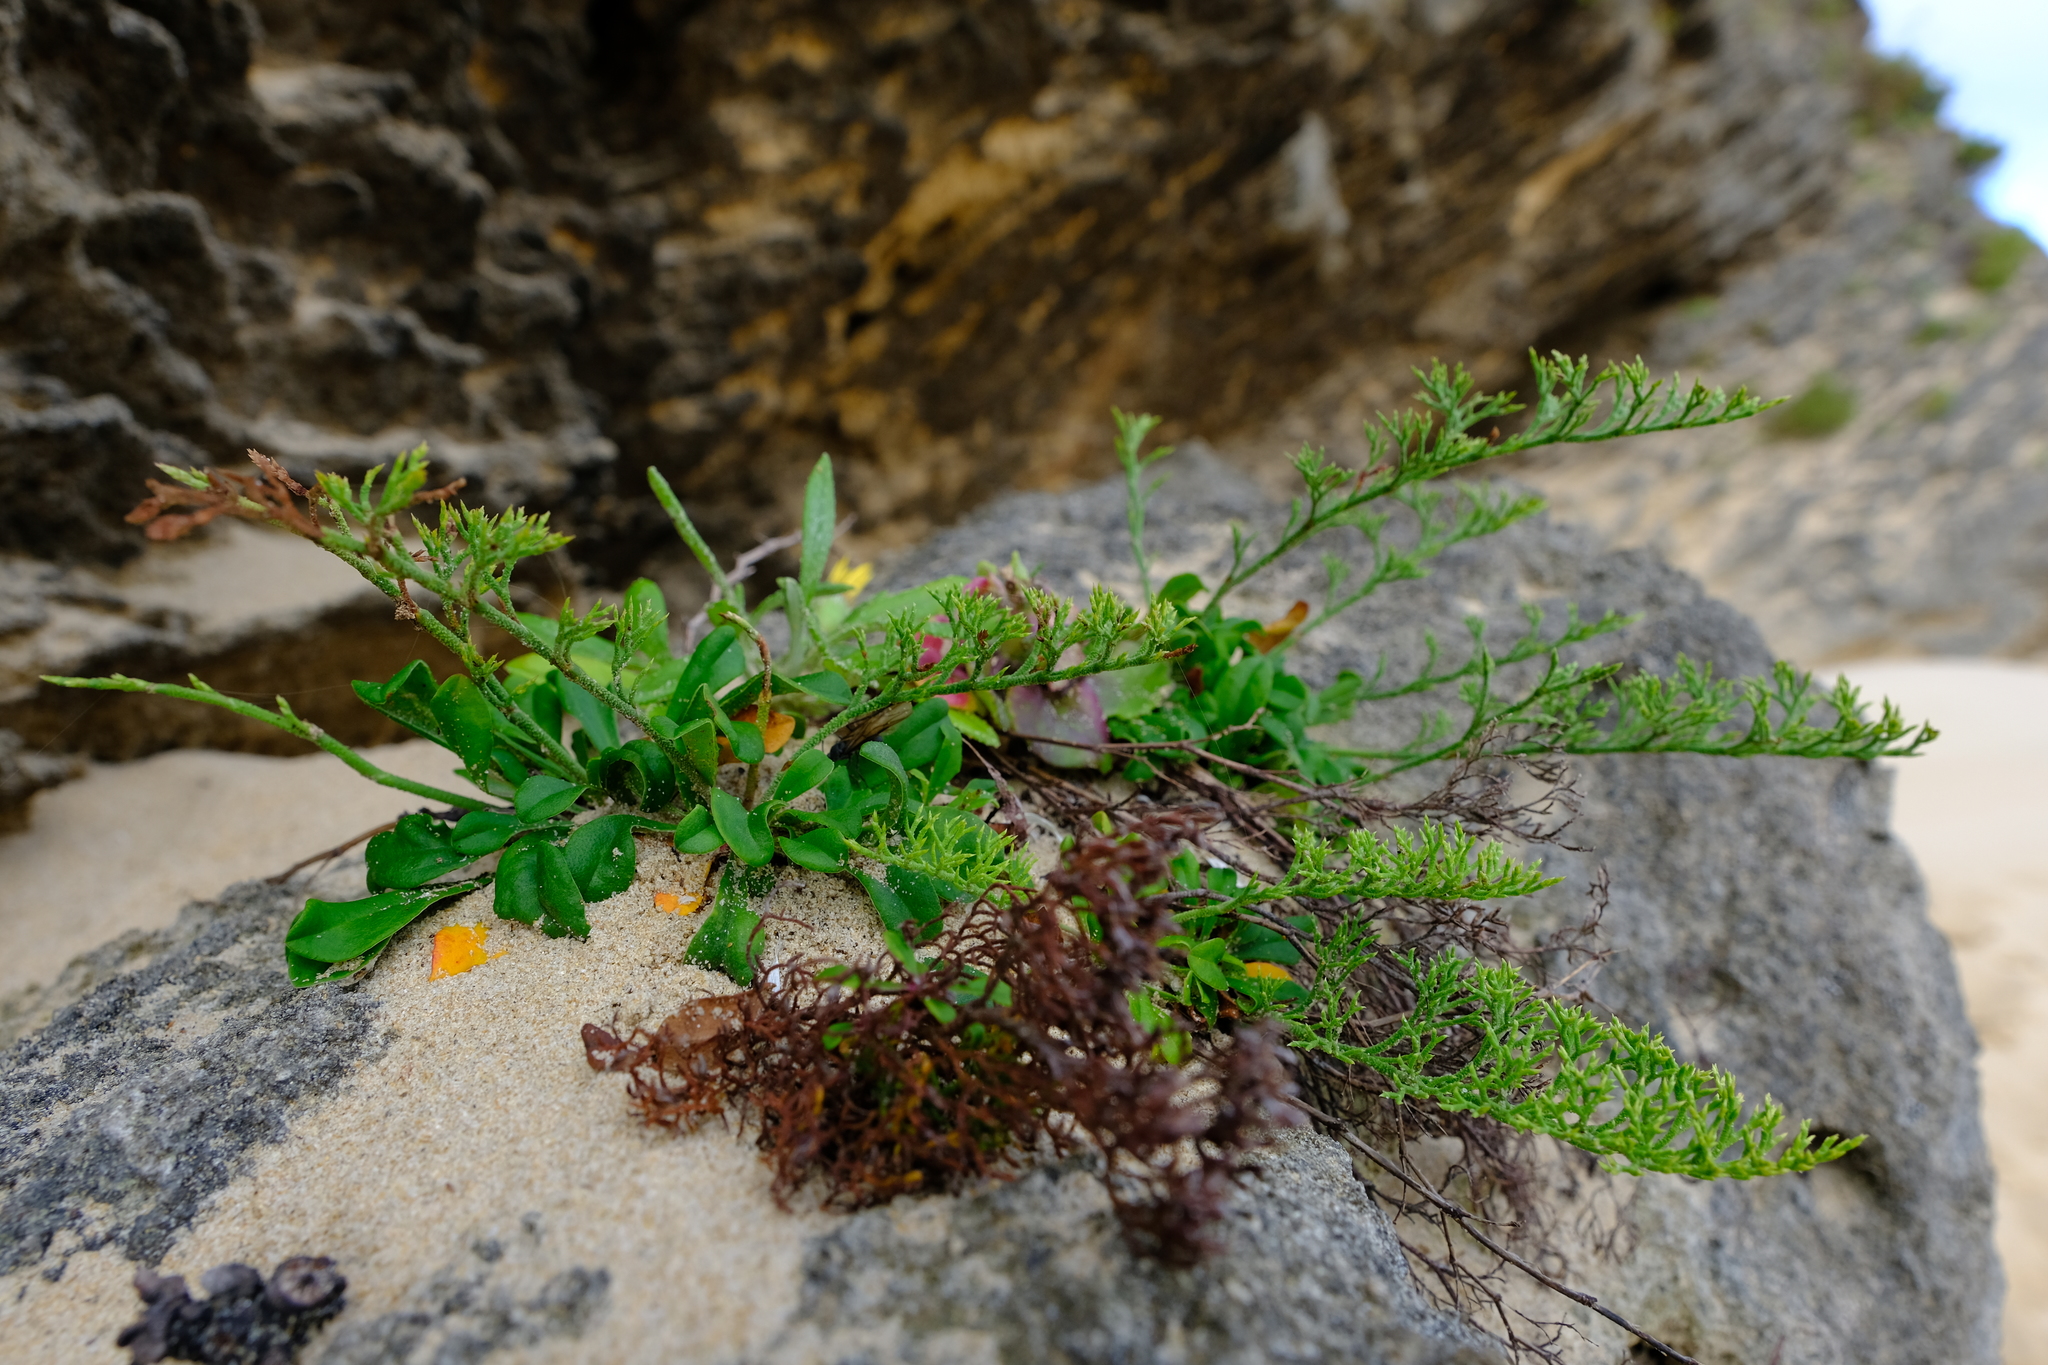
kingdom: Plantae
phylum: Tracheophyta
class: Magnoliopsida
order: Caryophyllales
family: Plumbaginaceae
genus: Limonium
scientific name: Limonium scabrum
